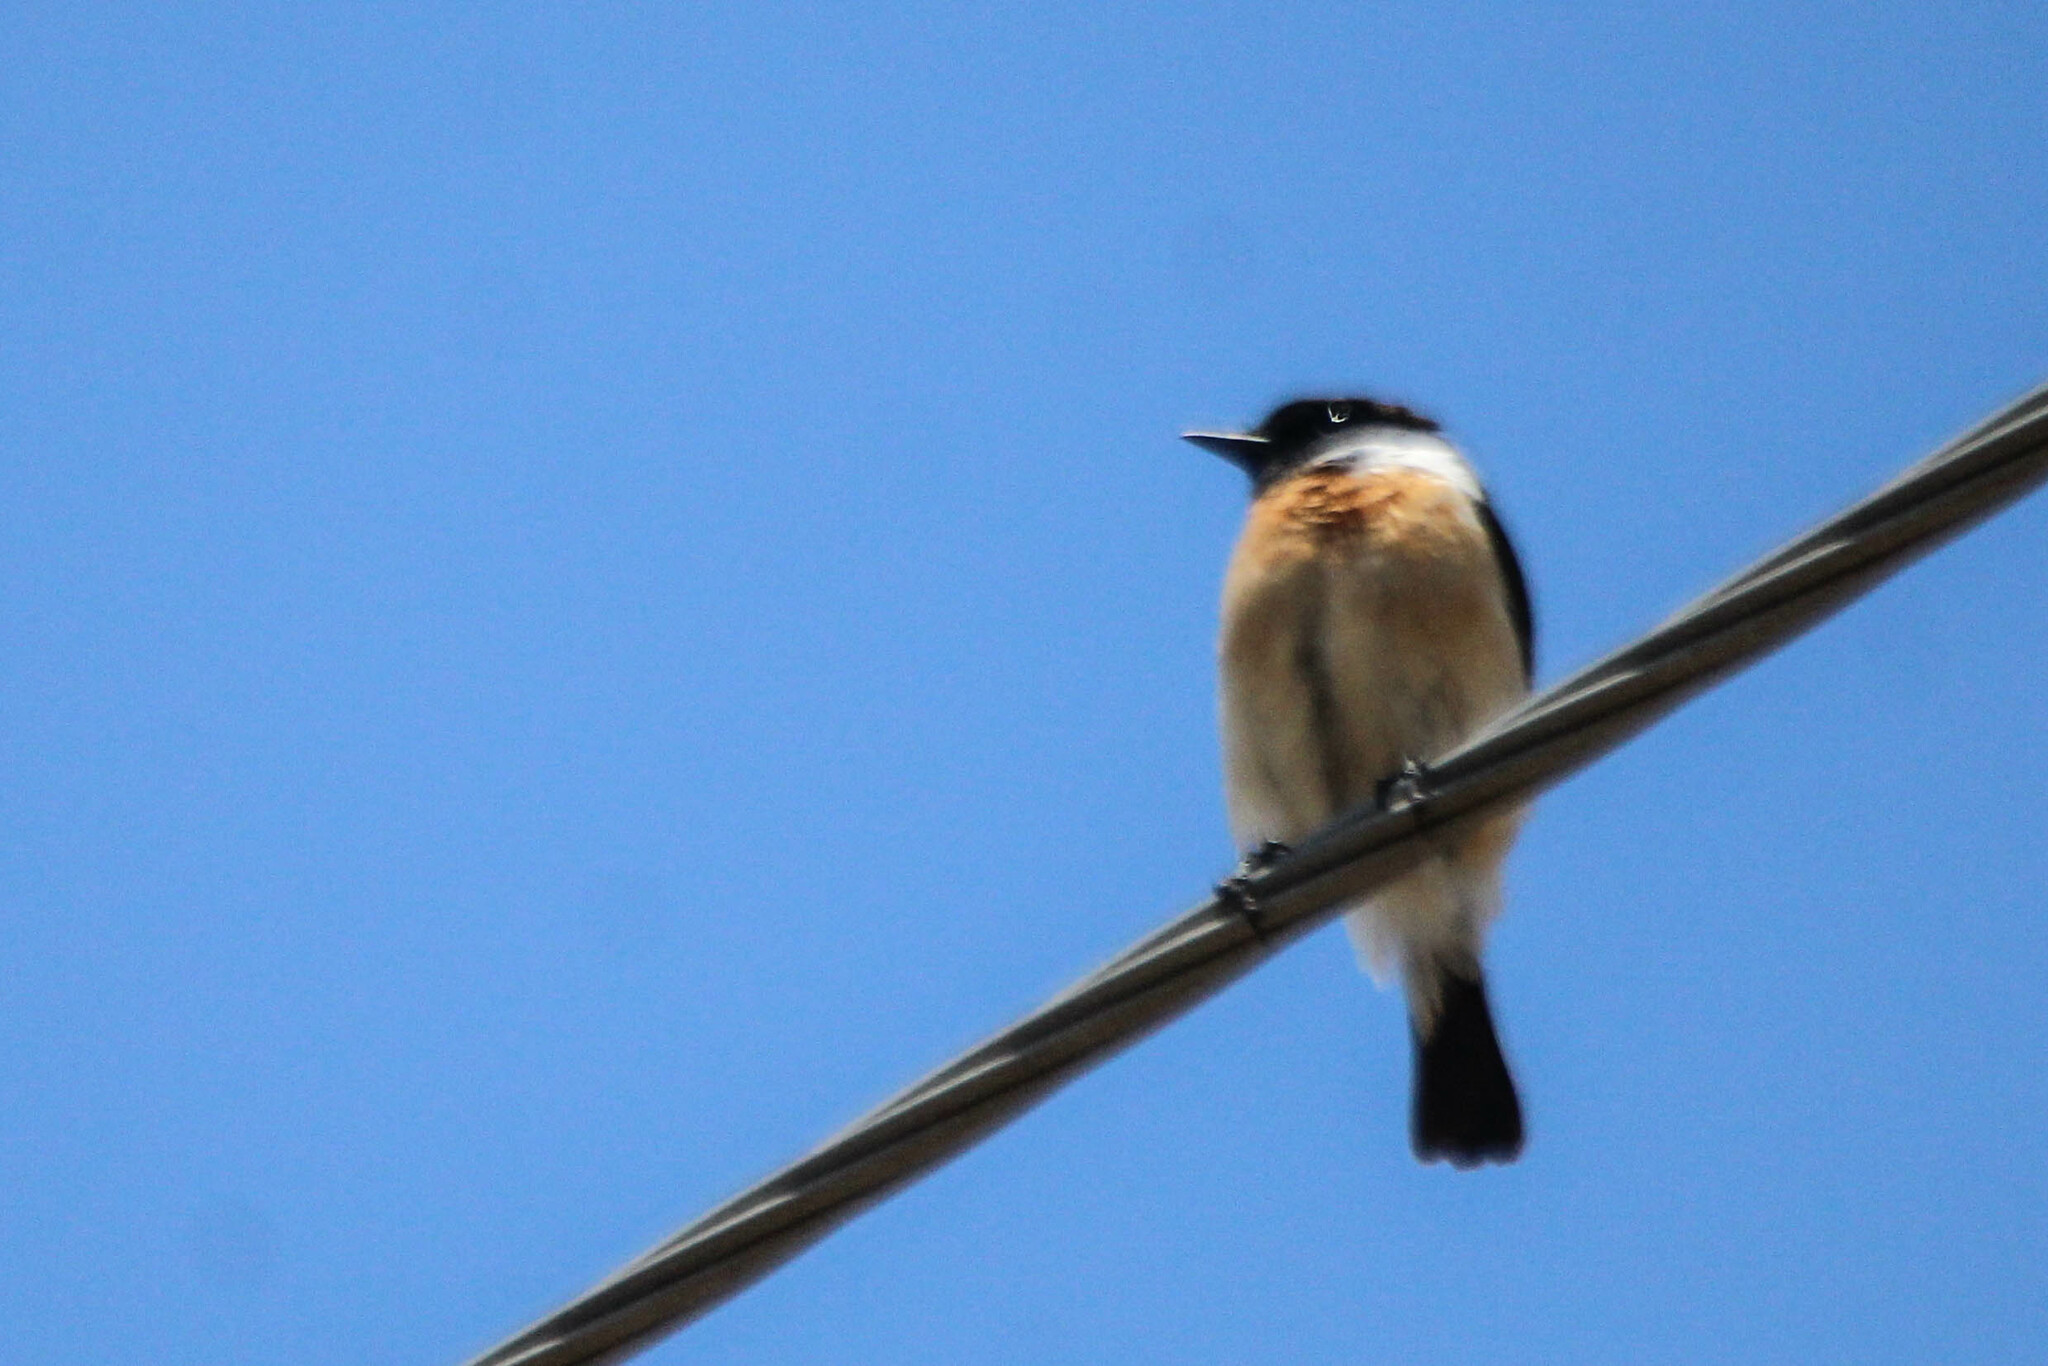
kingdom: Animalia
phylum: Chordata
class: Aves
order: Passeriformes
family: Muscicapidae
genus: Saxicola
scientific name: Saxicola stejnegeri
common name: Stejneger's stonechat
